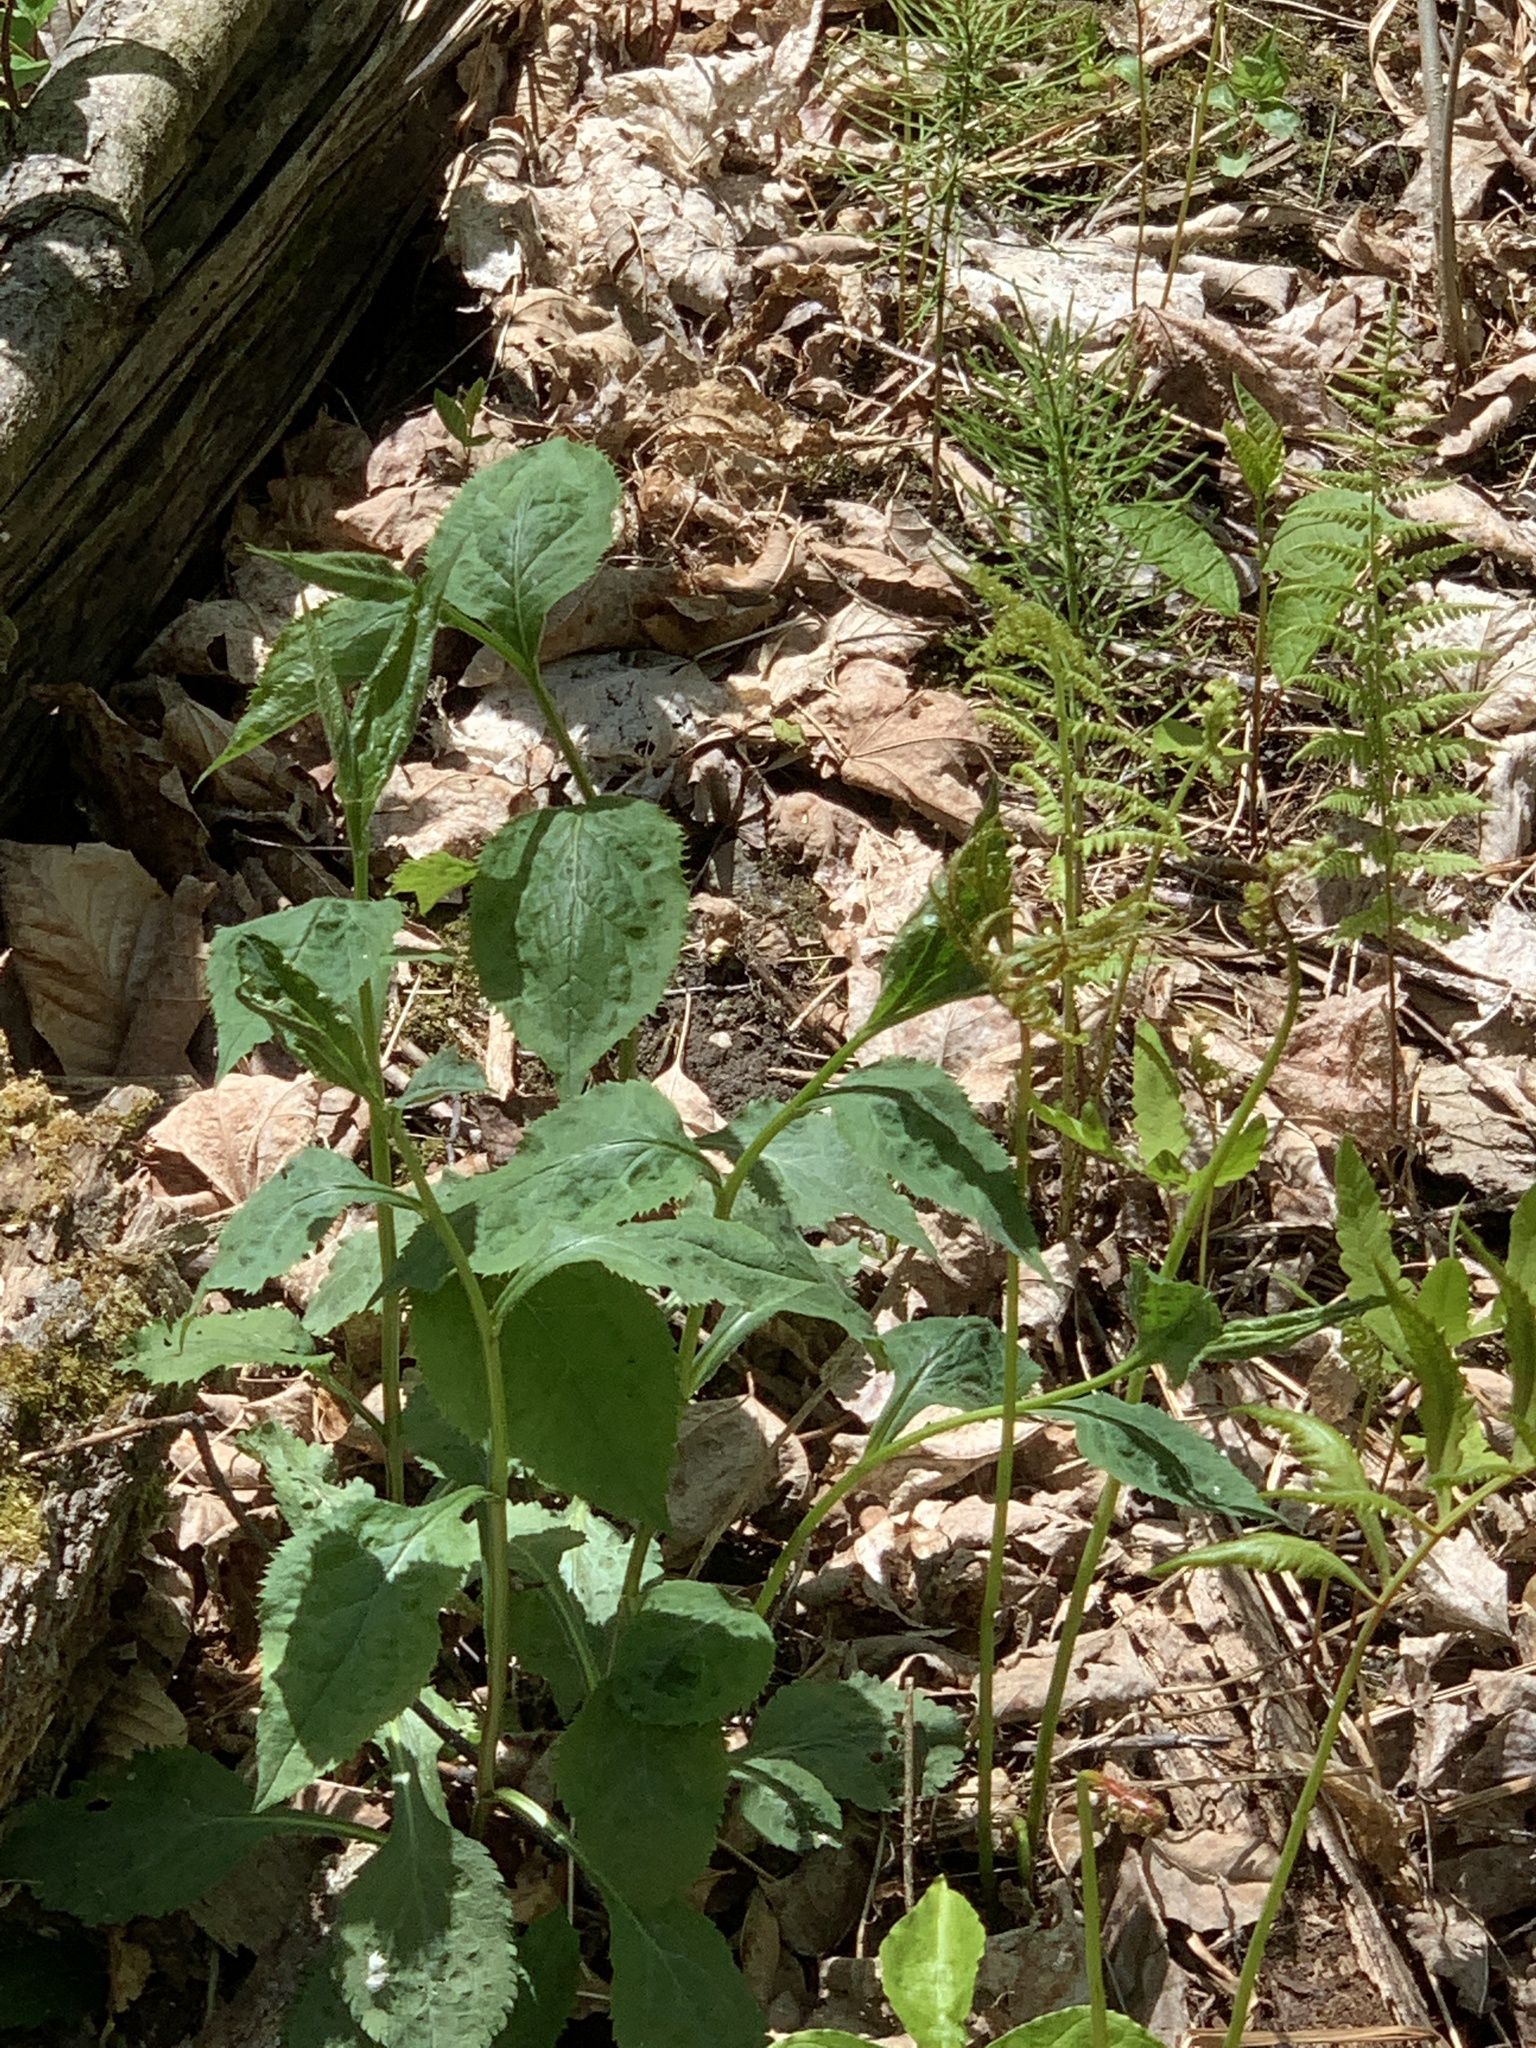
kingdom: Plantae
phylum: Tracheophyta
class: Magnoliopsida
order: Asterales
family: Asteraceae
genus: Solidago
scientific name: Solidago flexicaulis
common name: Zig-zag goldenrod
